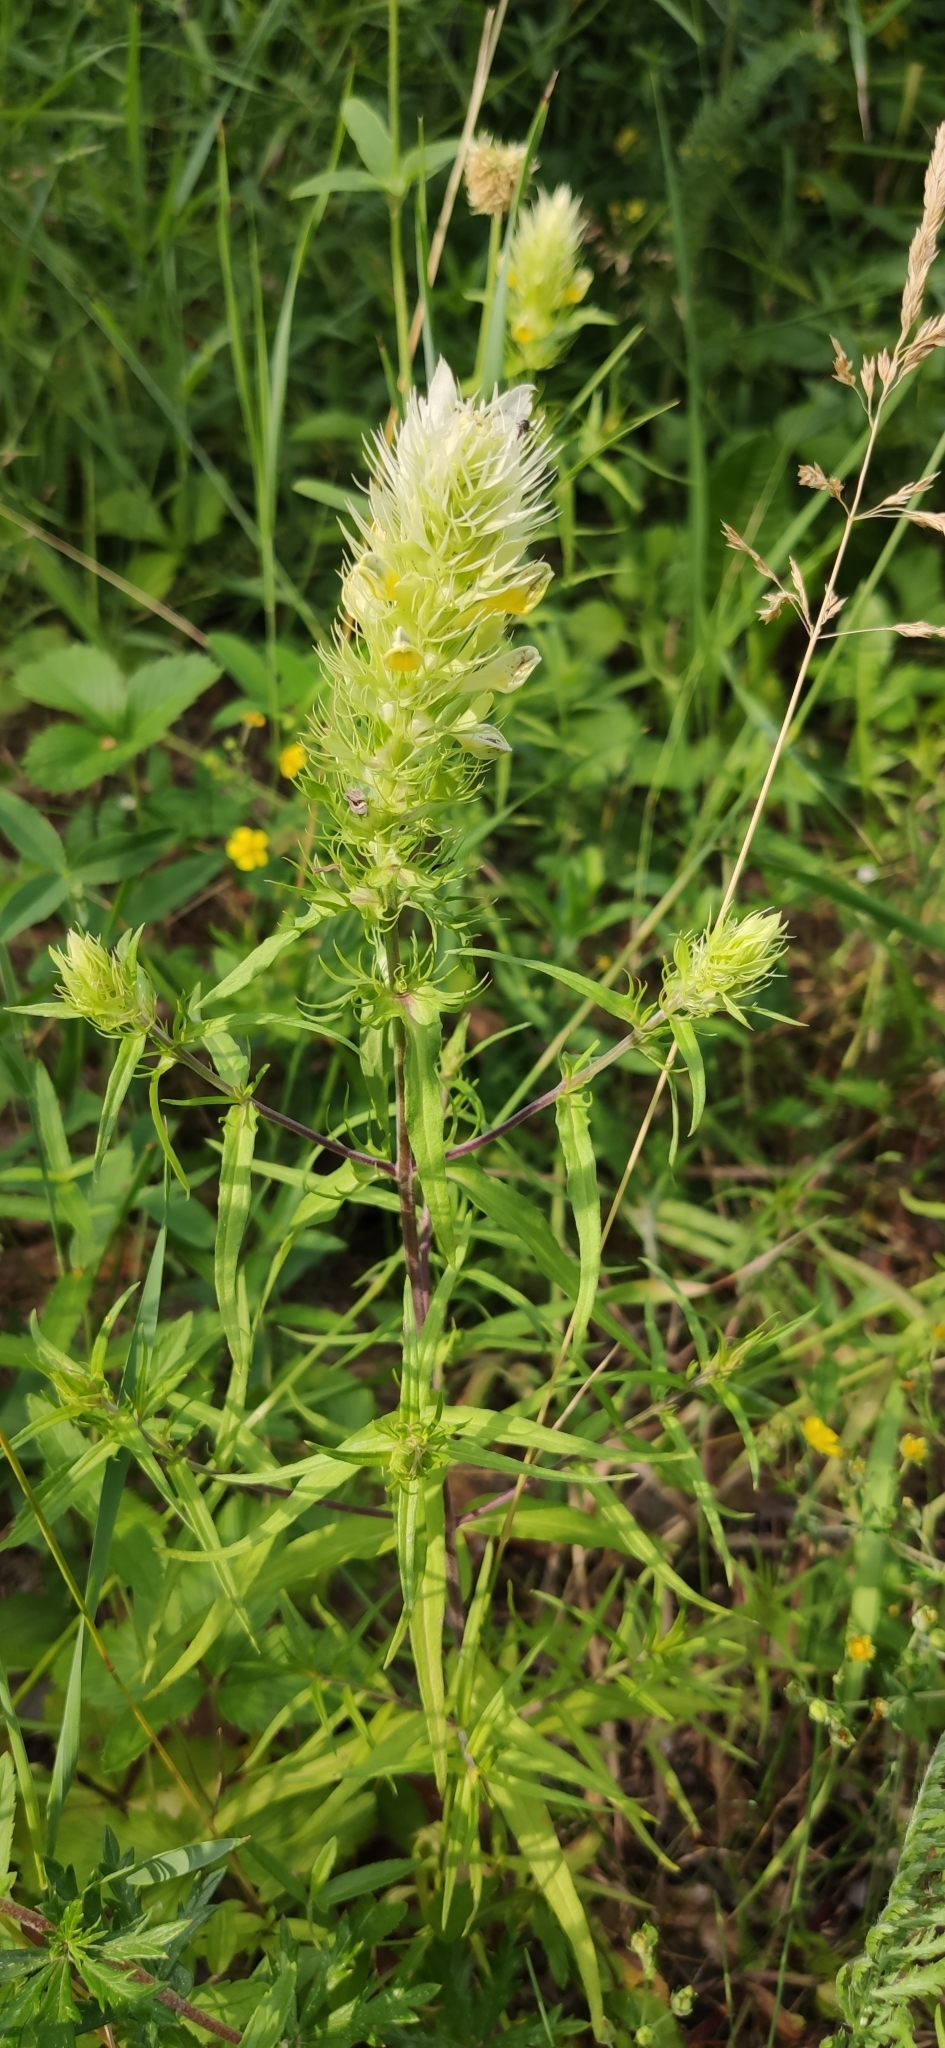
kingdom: Plantae
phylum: Tracheophyta
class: Magnoliopsida
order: Lamiales
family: Orobanchaceae
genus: Melampyrum
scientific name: Melampyrum arvense
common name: Field cow-wheat
